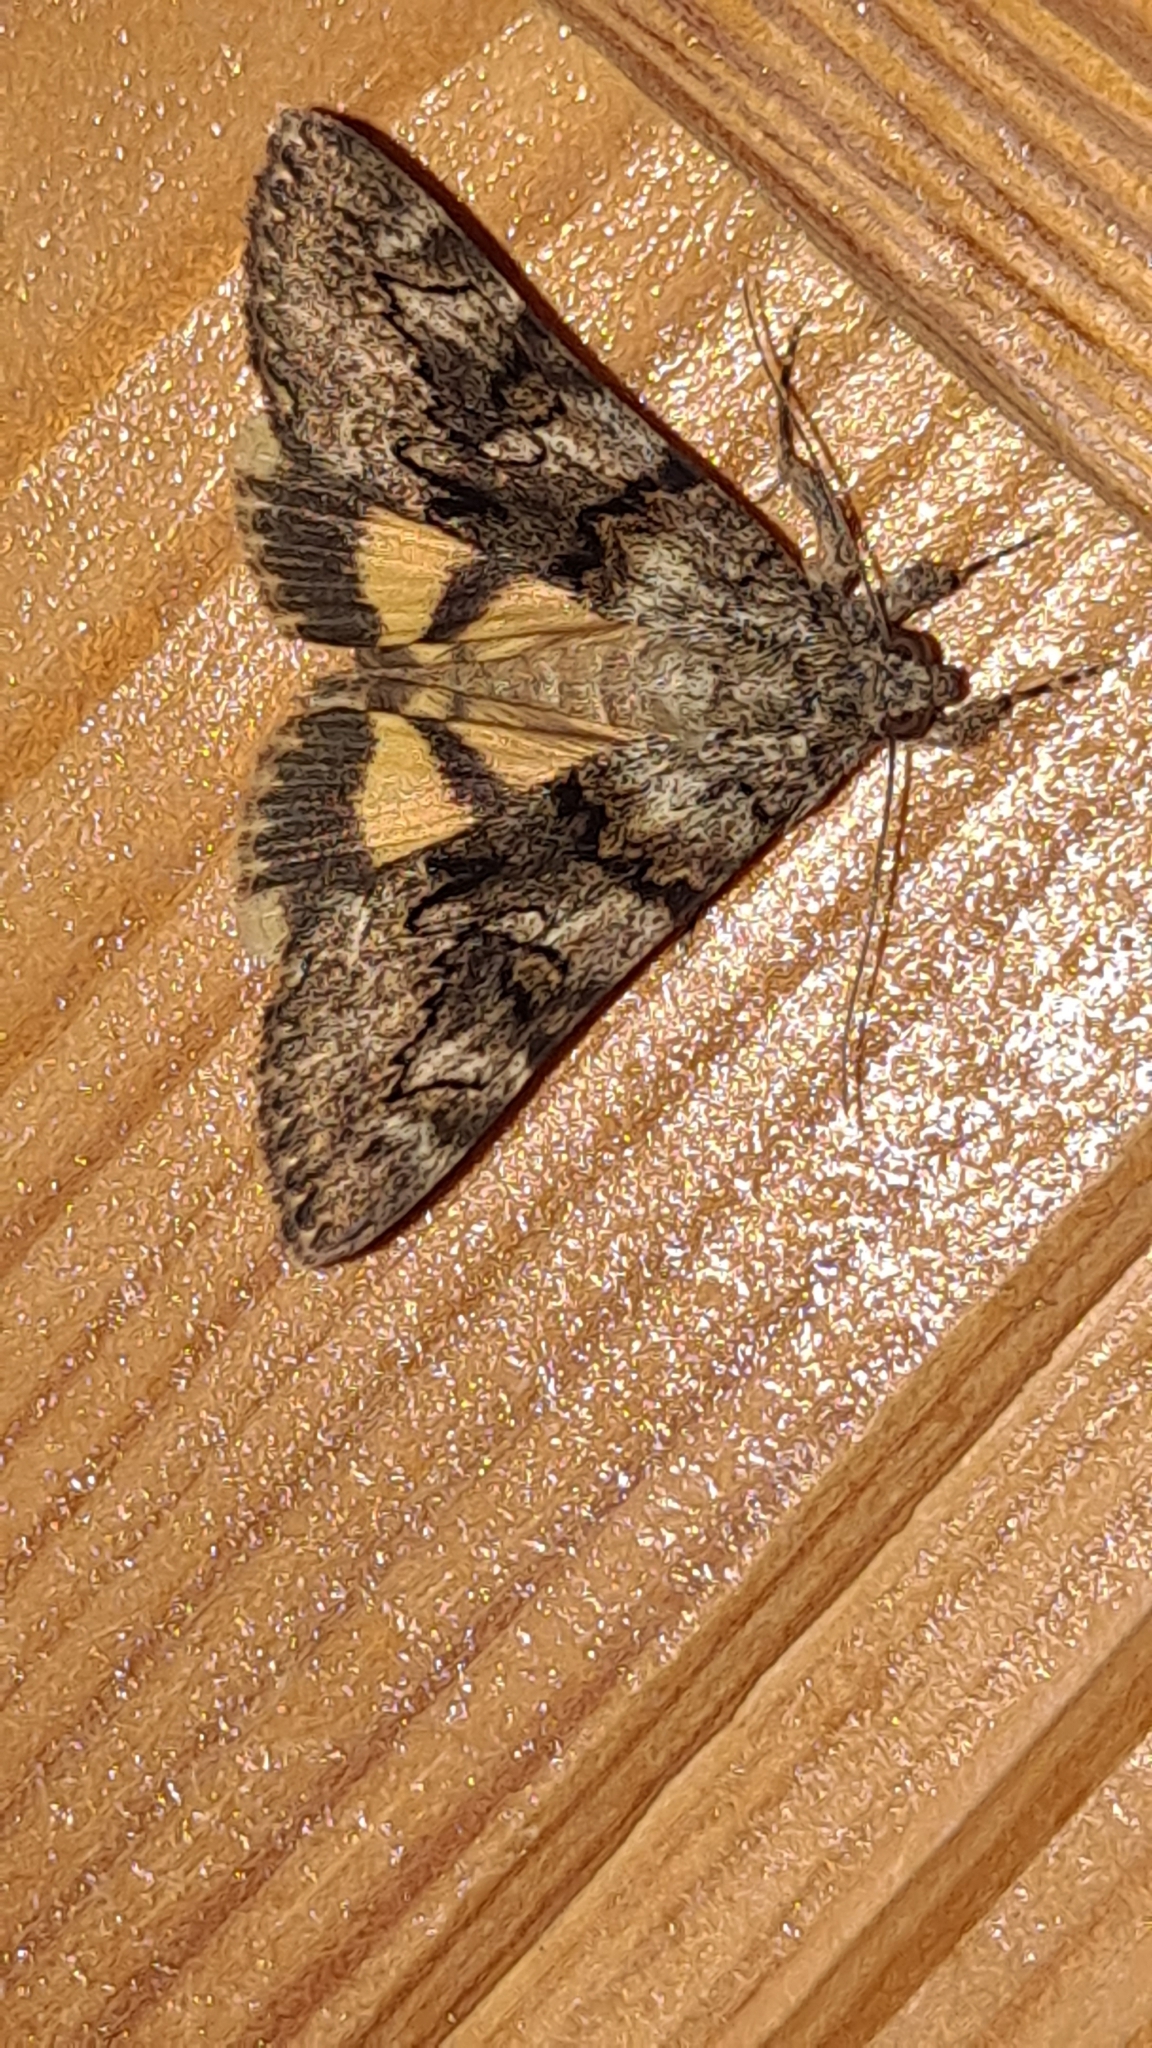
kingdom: Animalia
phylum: Arthropoda
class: Insecta
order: Lepidoptera
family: Erebidae
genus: Catocala
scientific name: Catocala nymphagoga
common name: Oak yellow underwing
